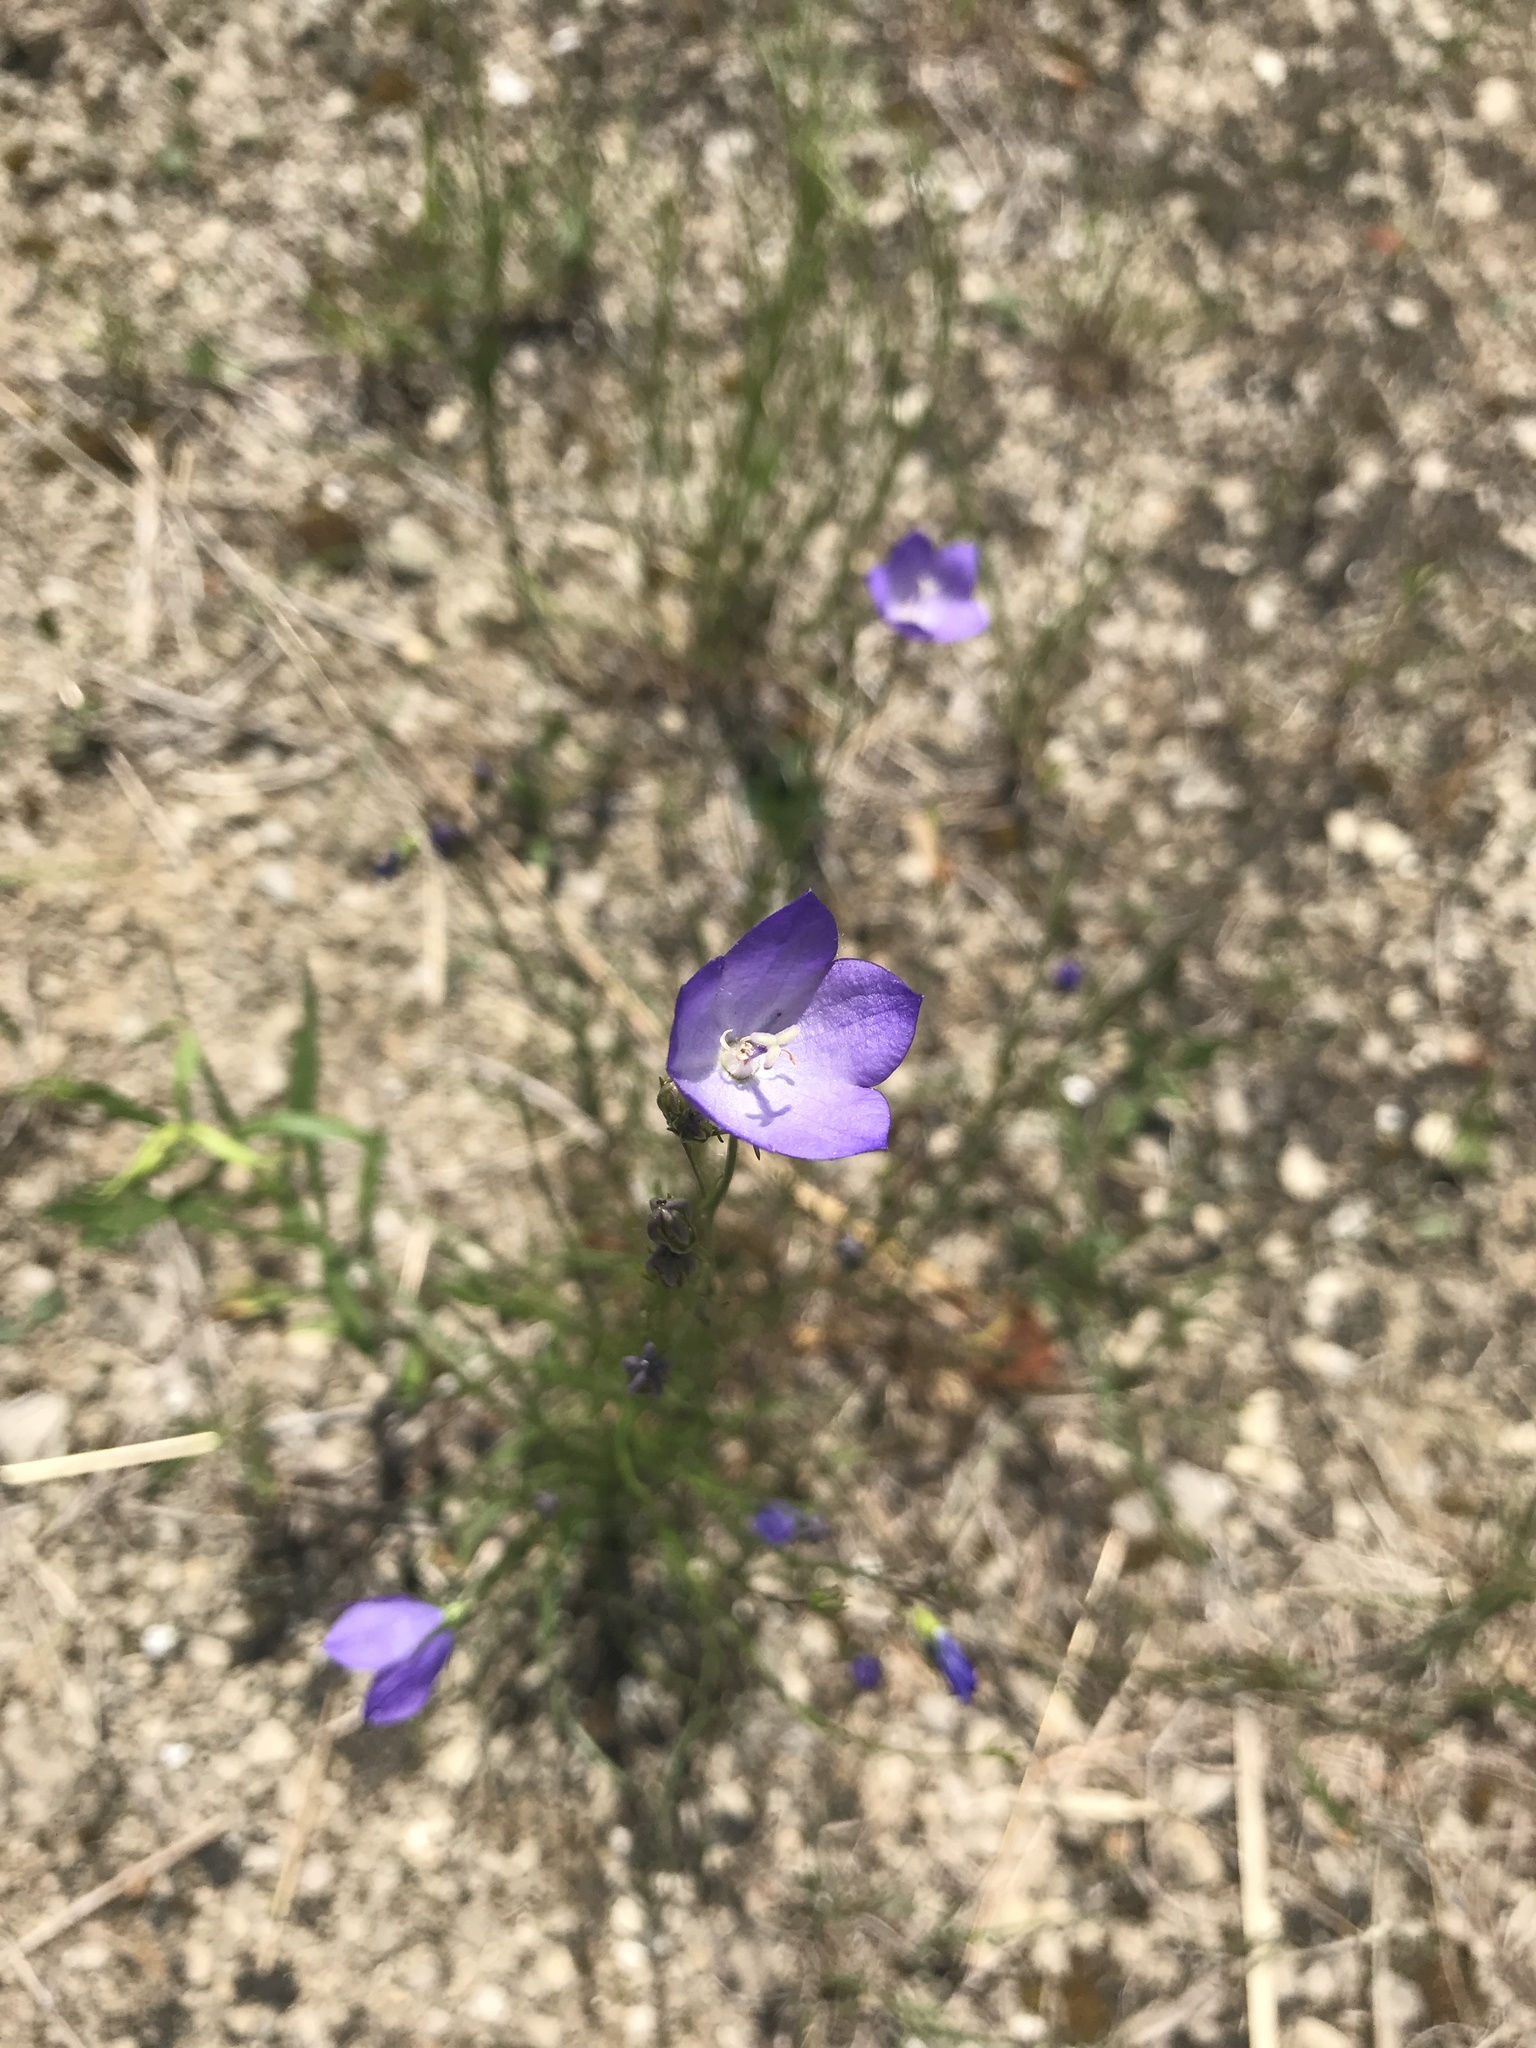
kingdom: Plantae
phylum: Tracheophyta
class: Magnoliopsida
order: Asterales
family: Campanulaceae
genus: Campanula
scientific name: Campanula intercedens
